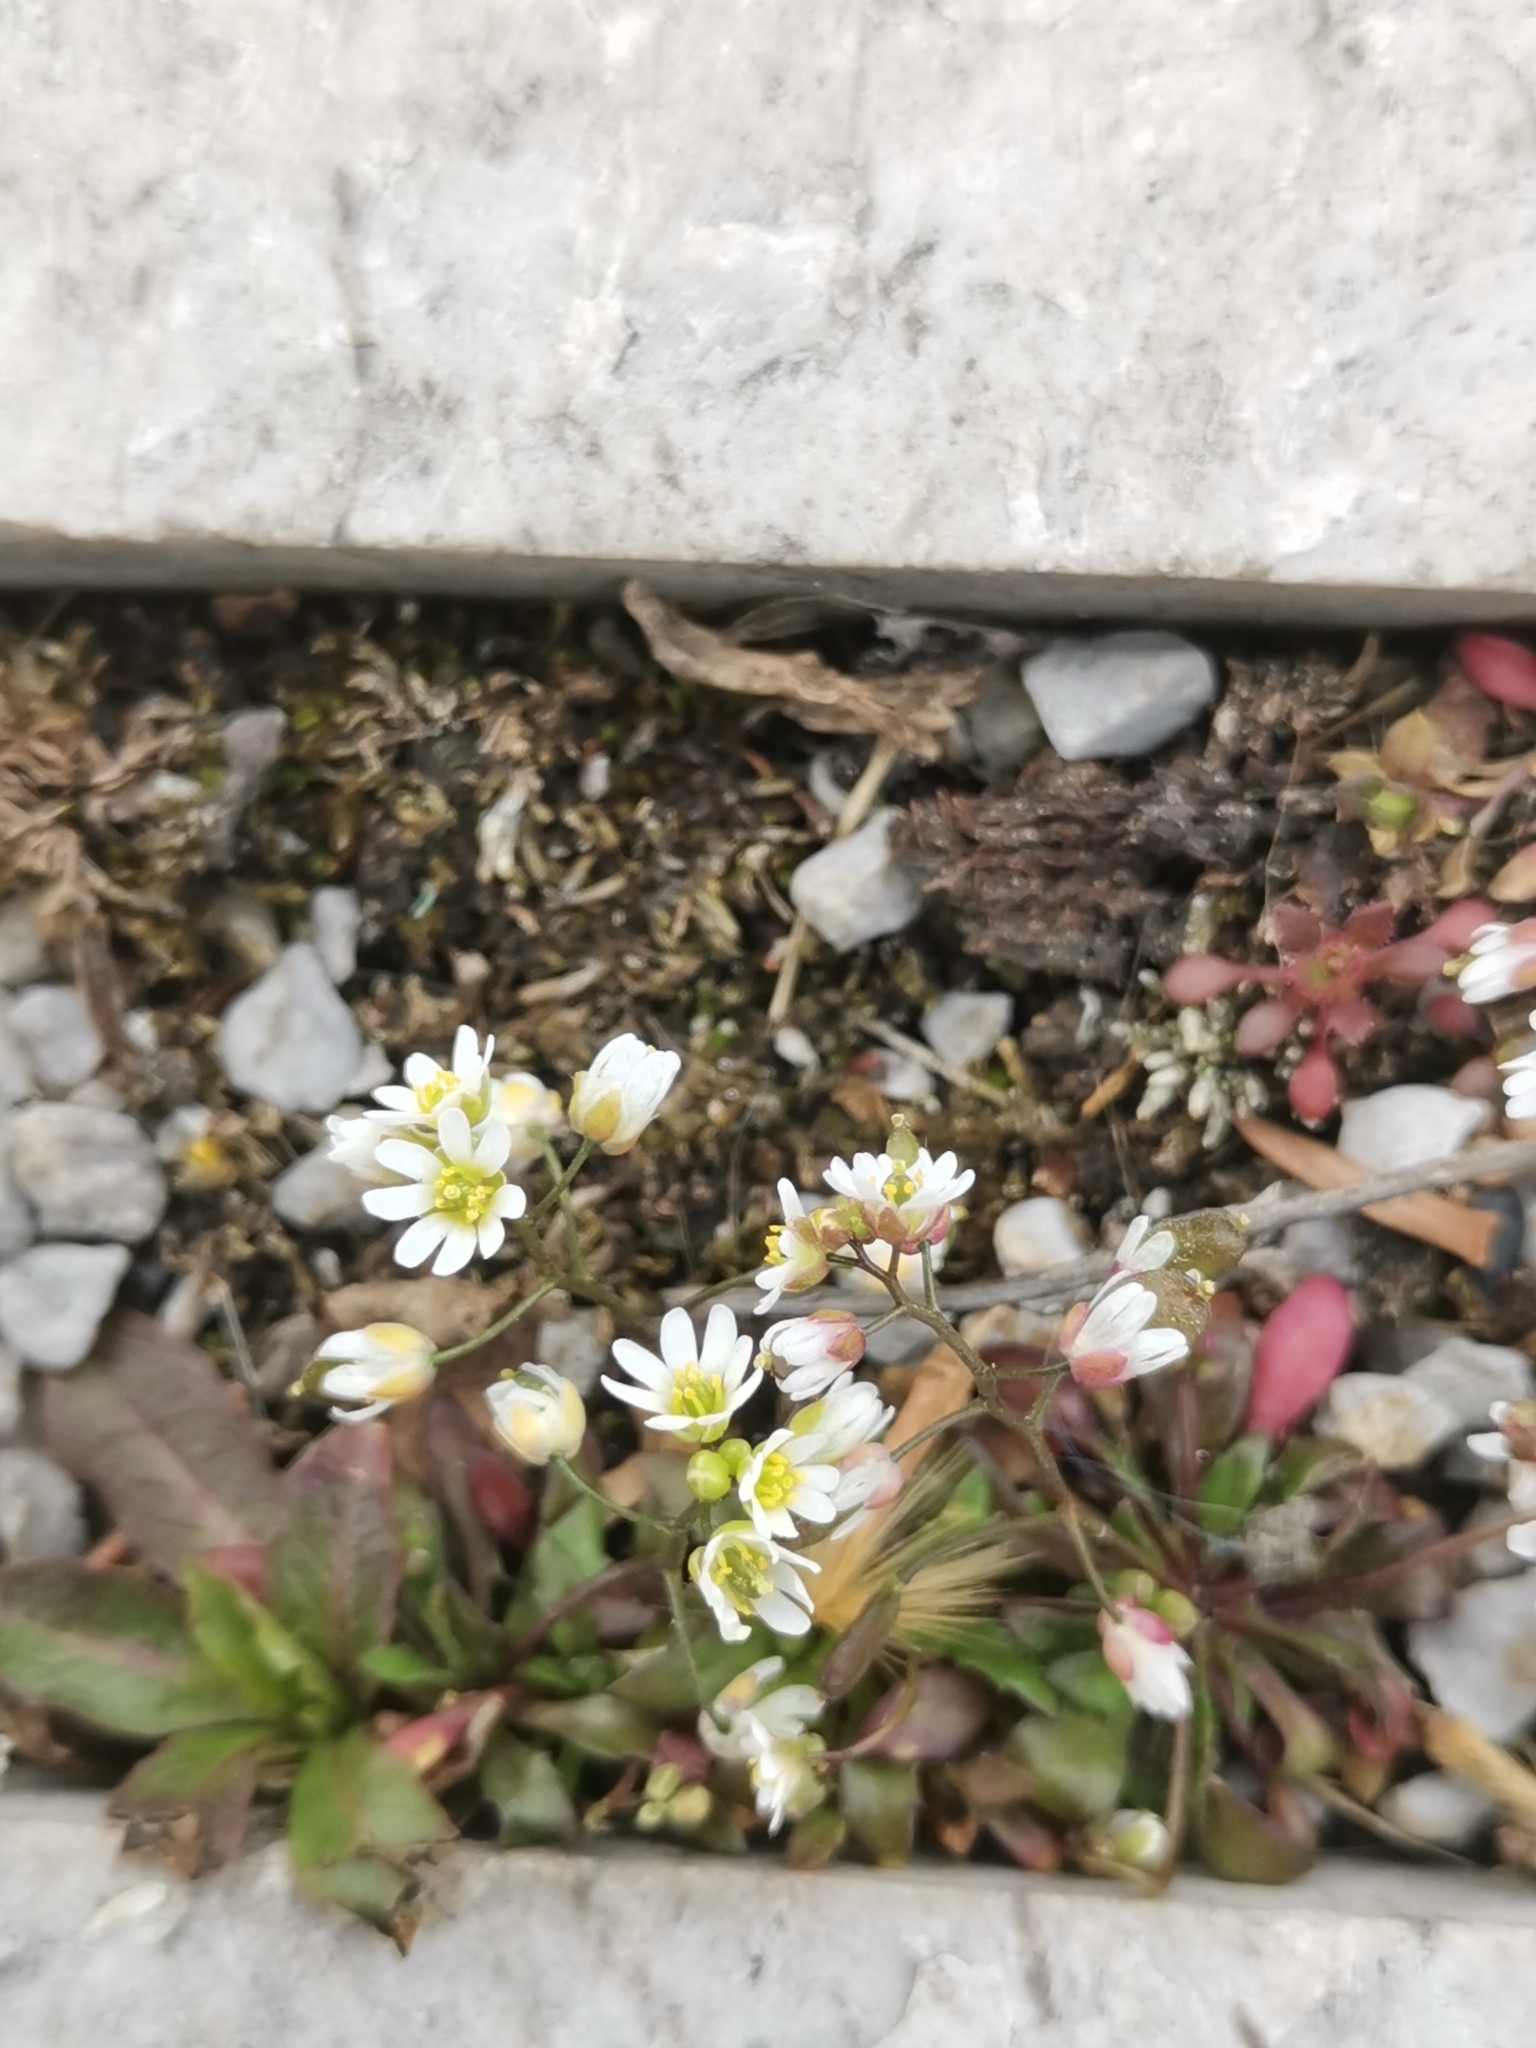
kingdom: Plantae
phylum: Tracheophyta
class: Magnoliopsida
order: Brassicales
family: Brassicaceae
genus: Draba
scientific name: Draba verna
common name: Spring draba
